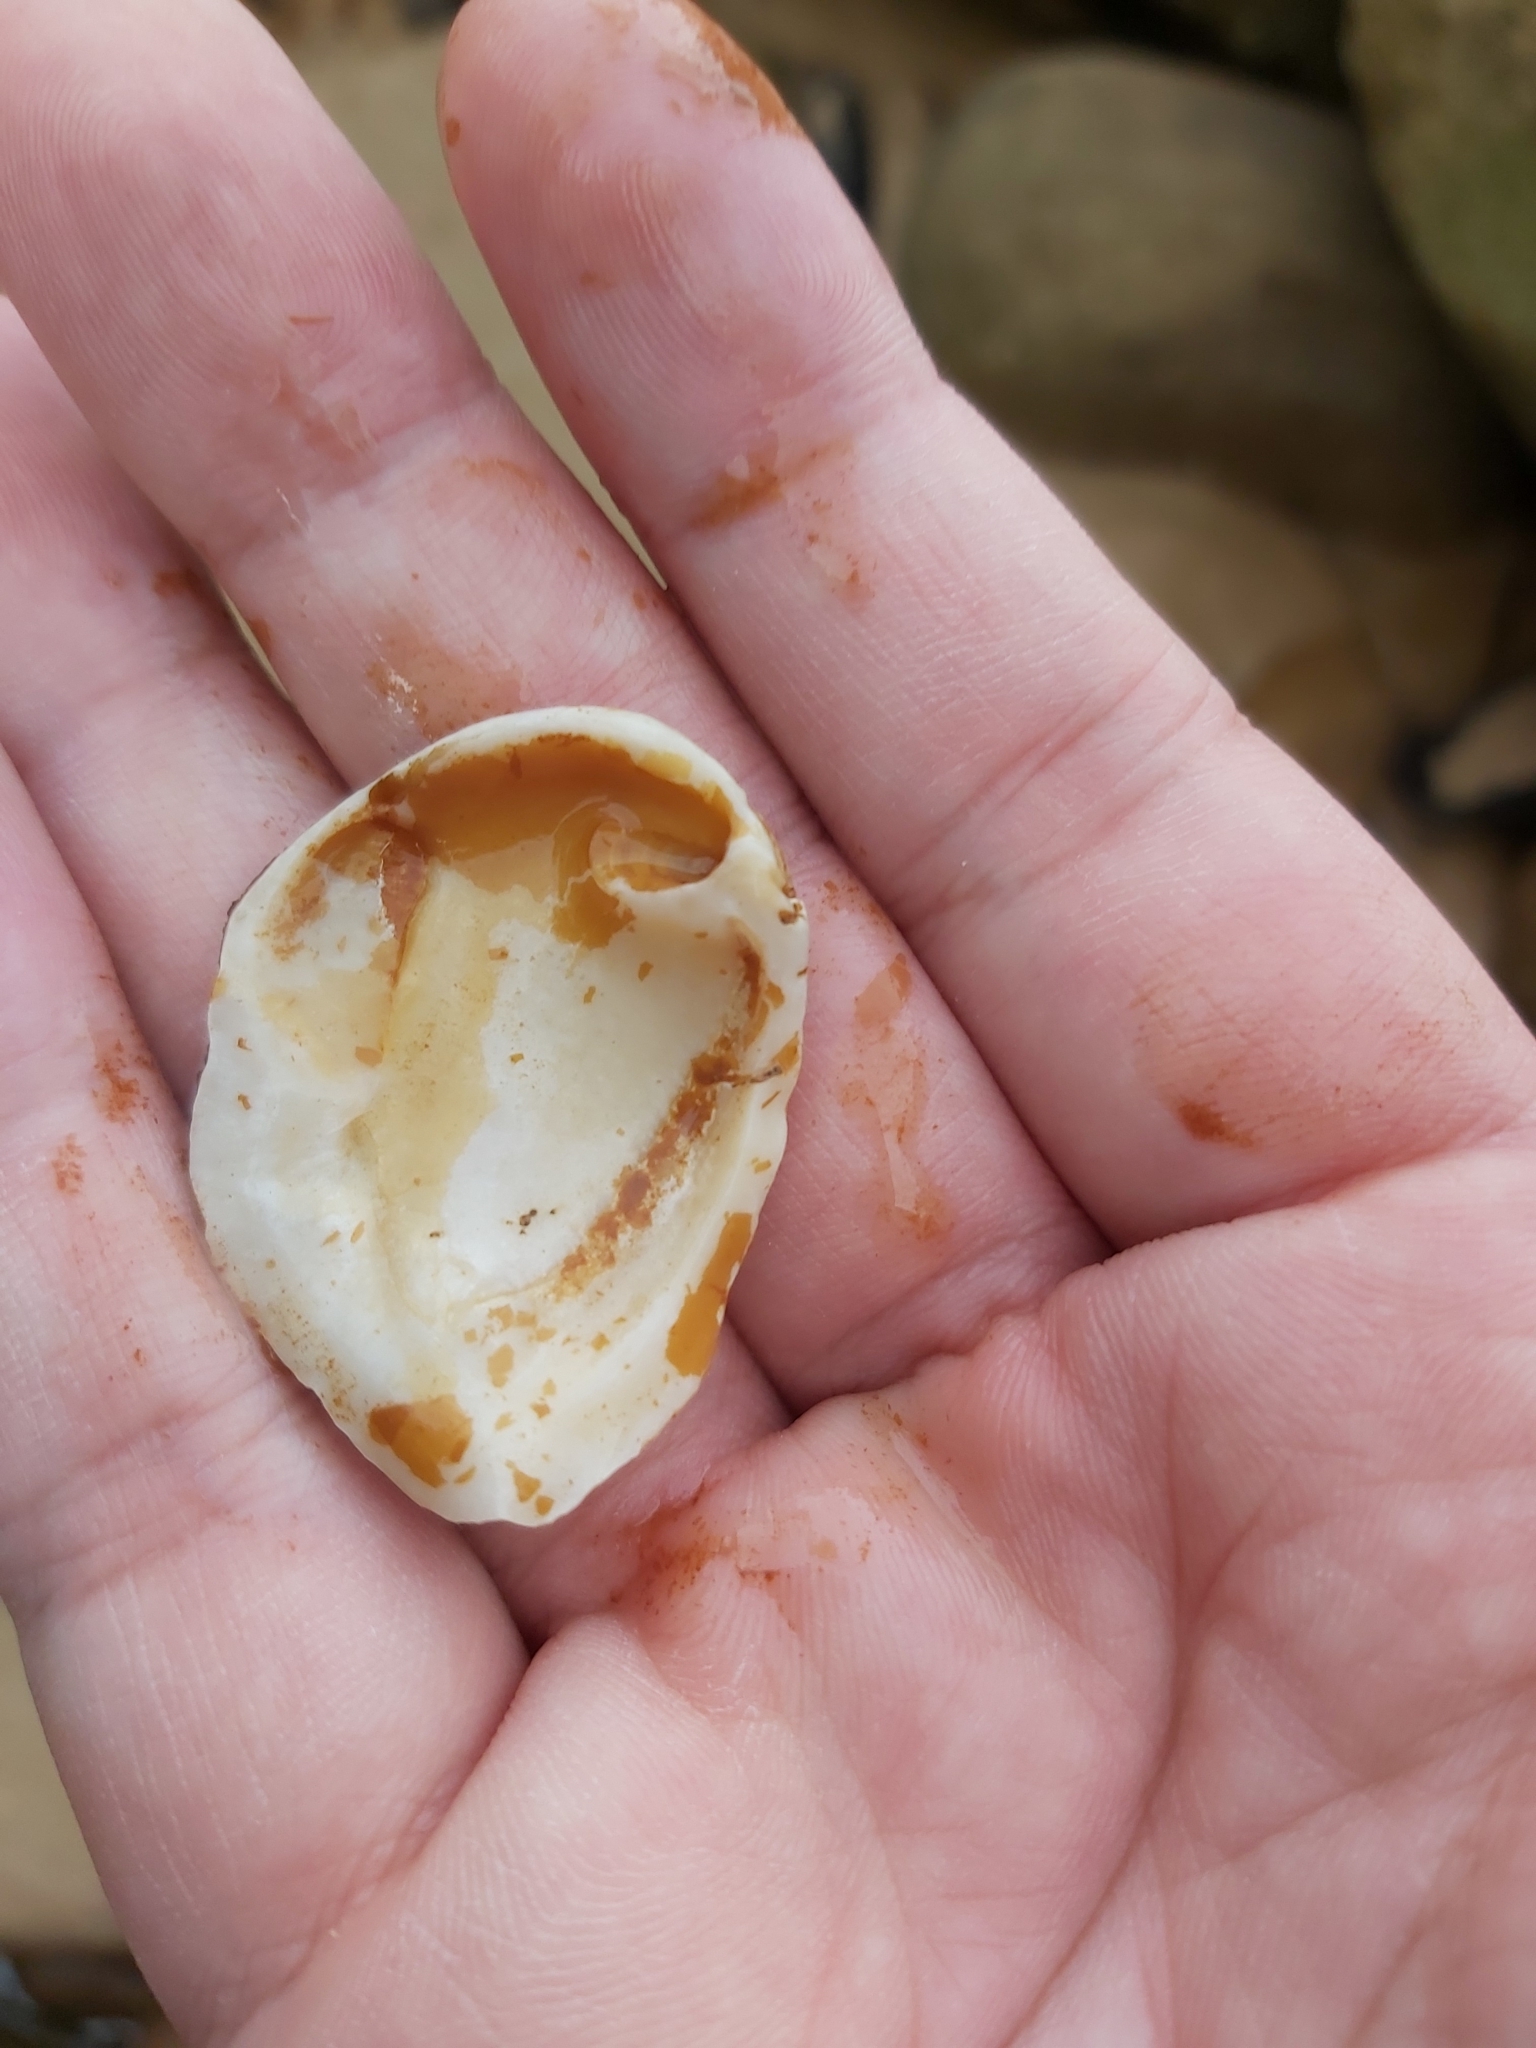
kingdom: Animalia
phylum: Mollusca
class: Bivalvia
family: Cleidothaeridae
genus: Cleidothaerus
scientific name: Cleidothaerus albidus
